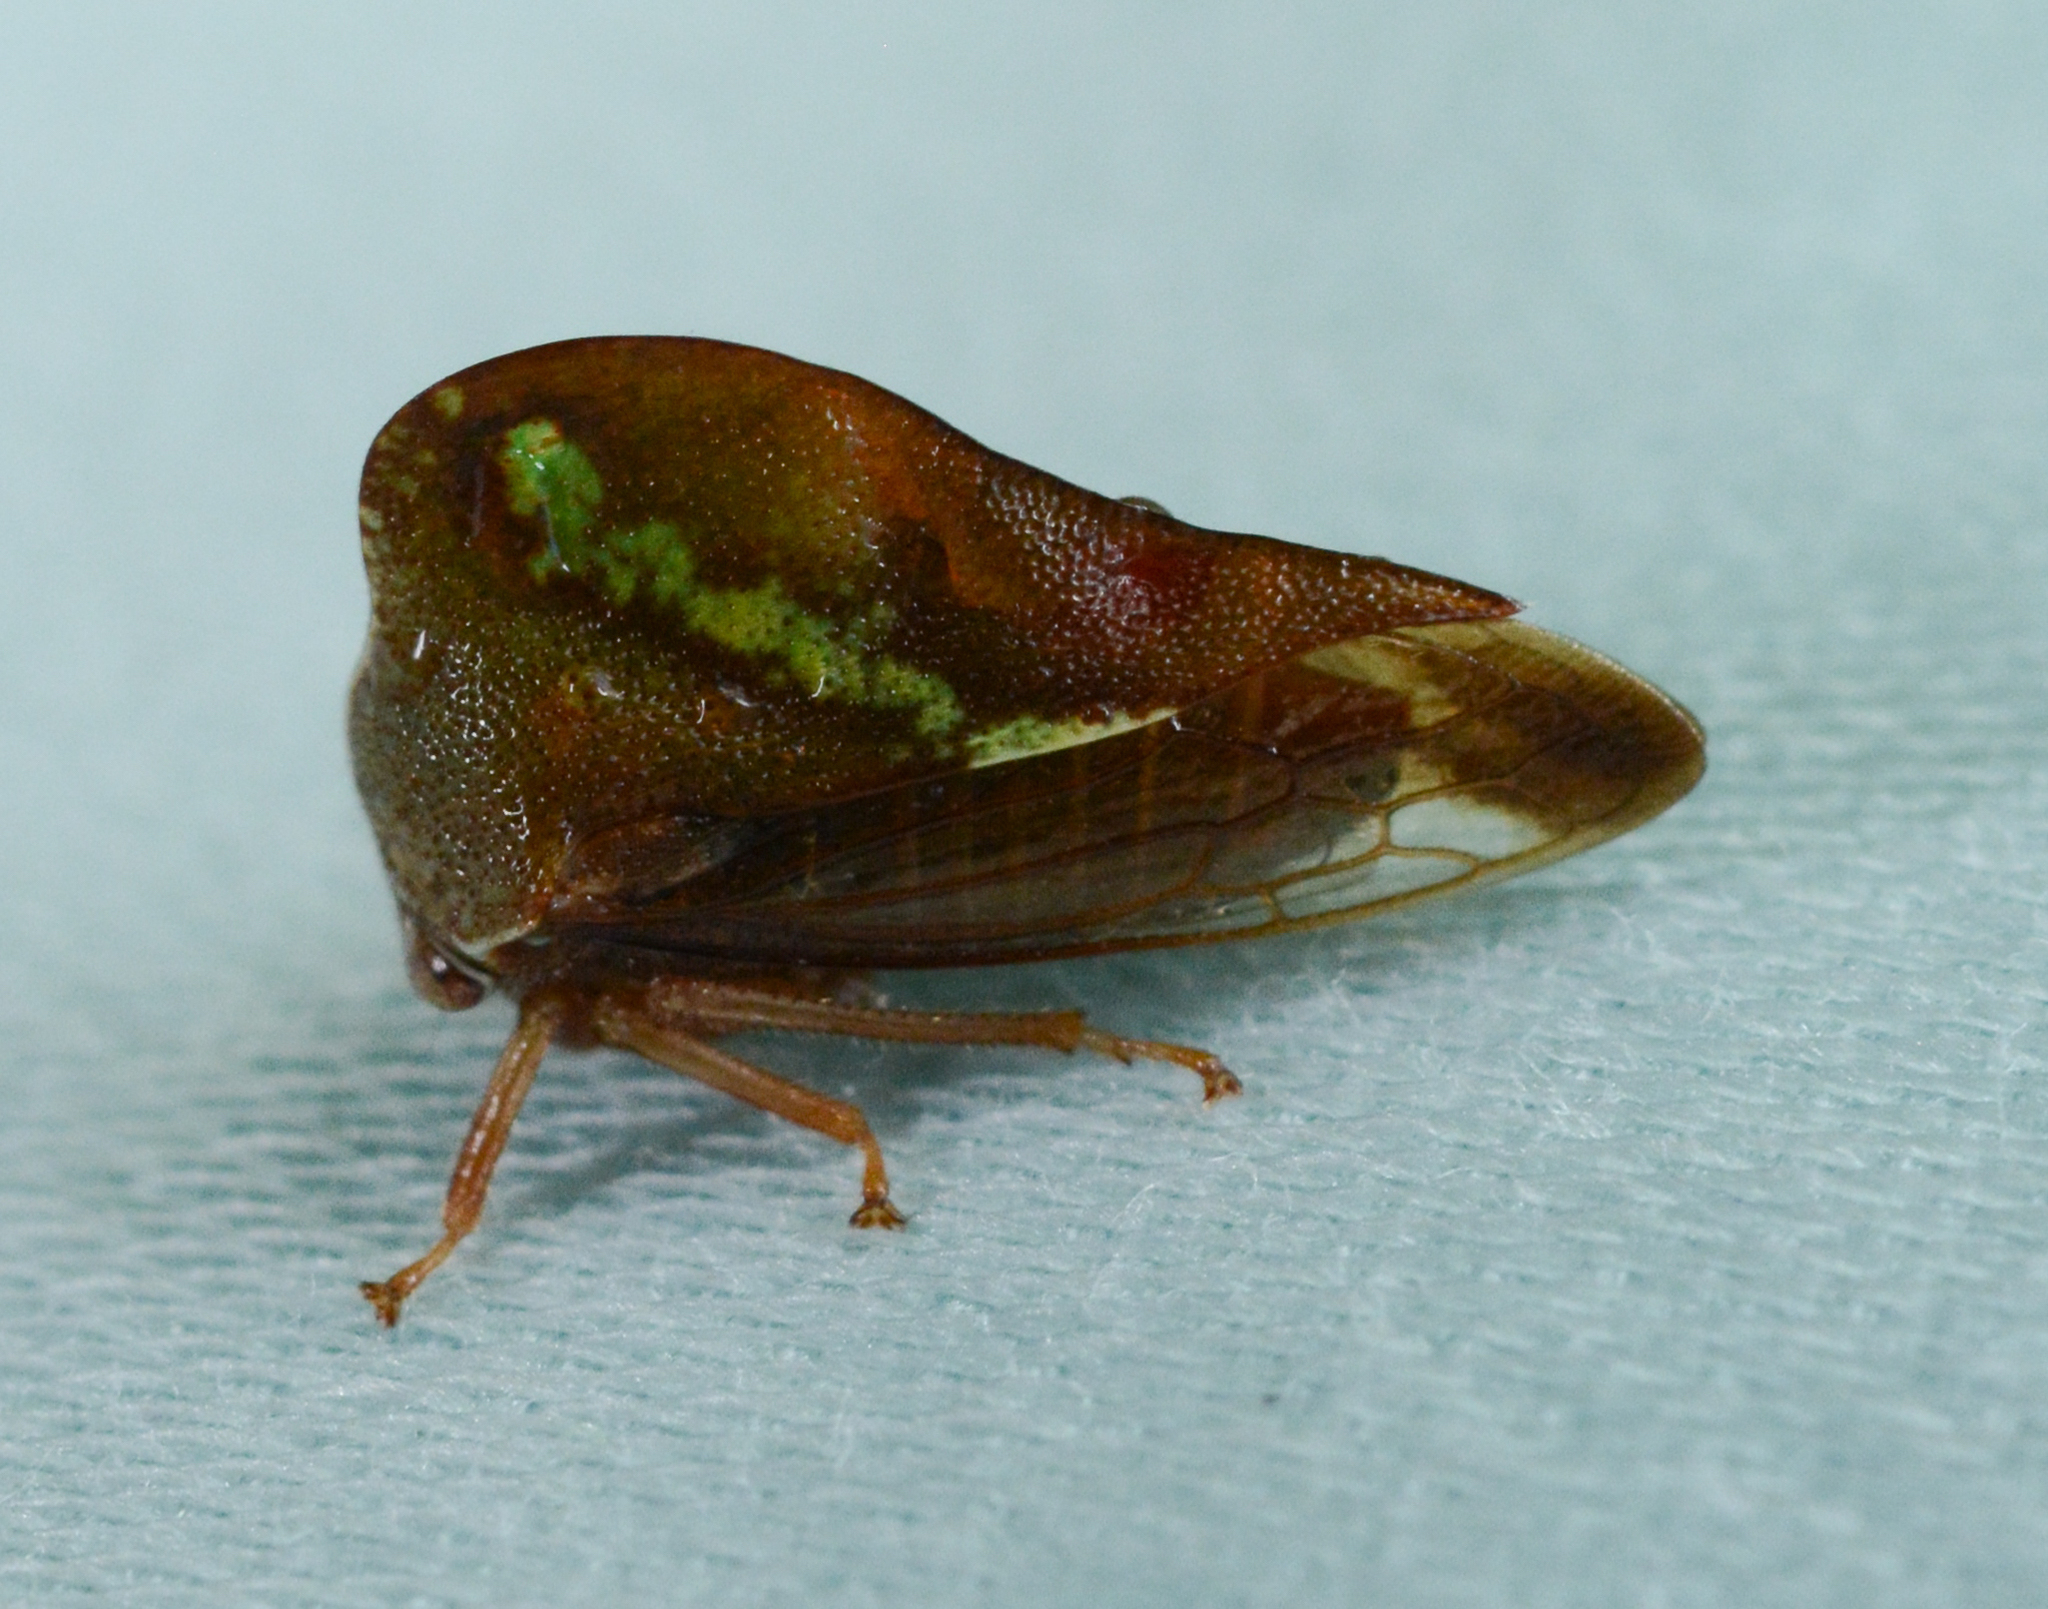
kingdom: Animalia
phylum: Arthropoda
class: Insecta
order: Hemiptera
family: Membracidae
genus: Smilia
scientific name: Smilia camelus
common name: Camel treehopper
